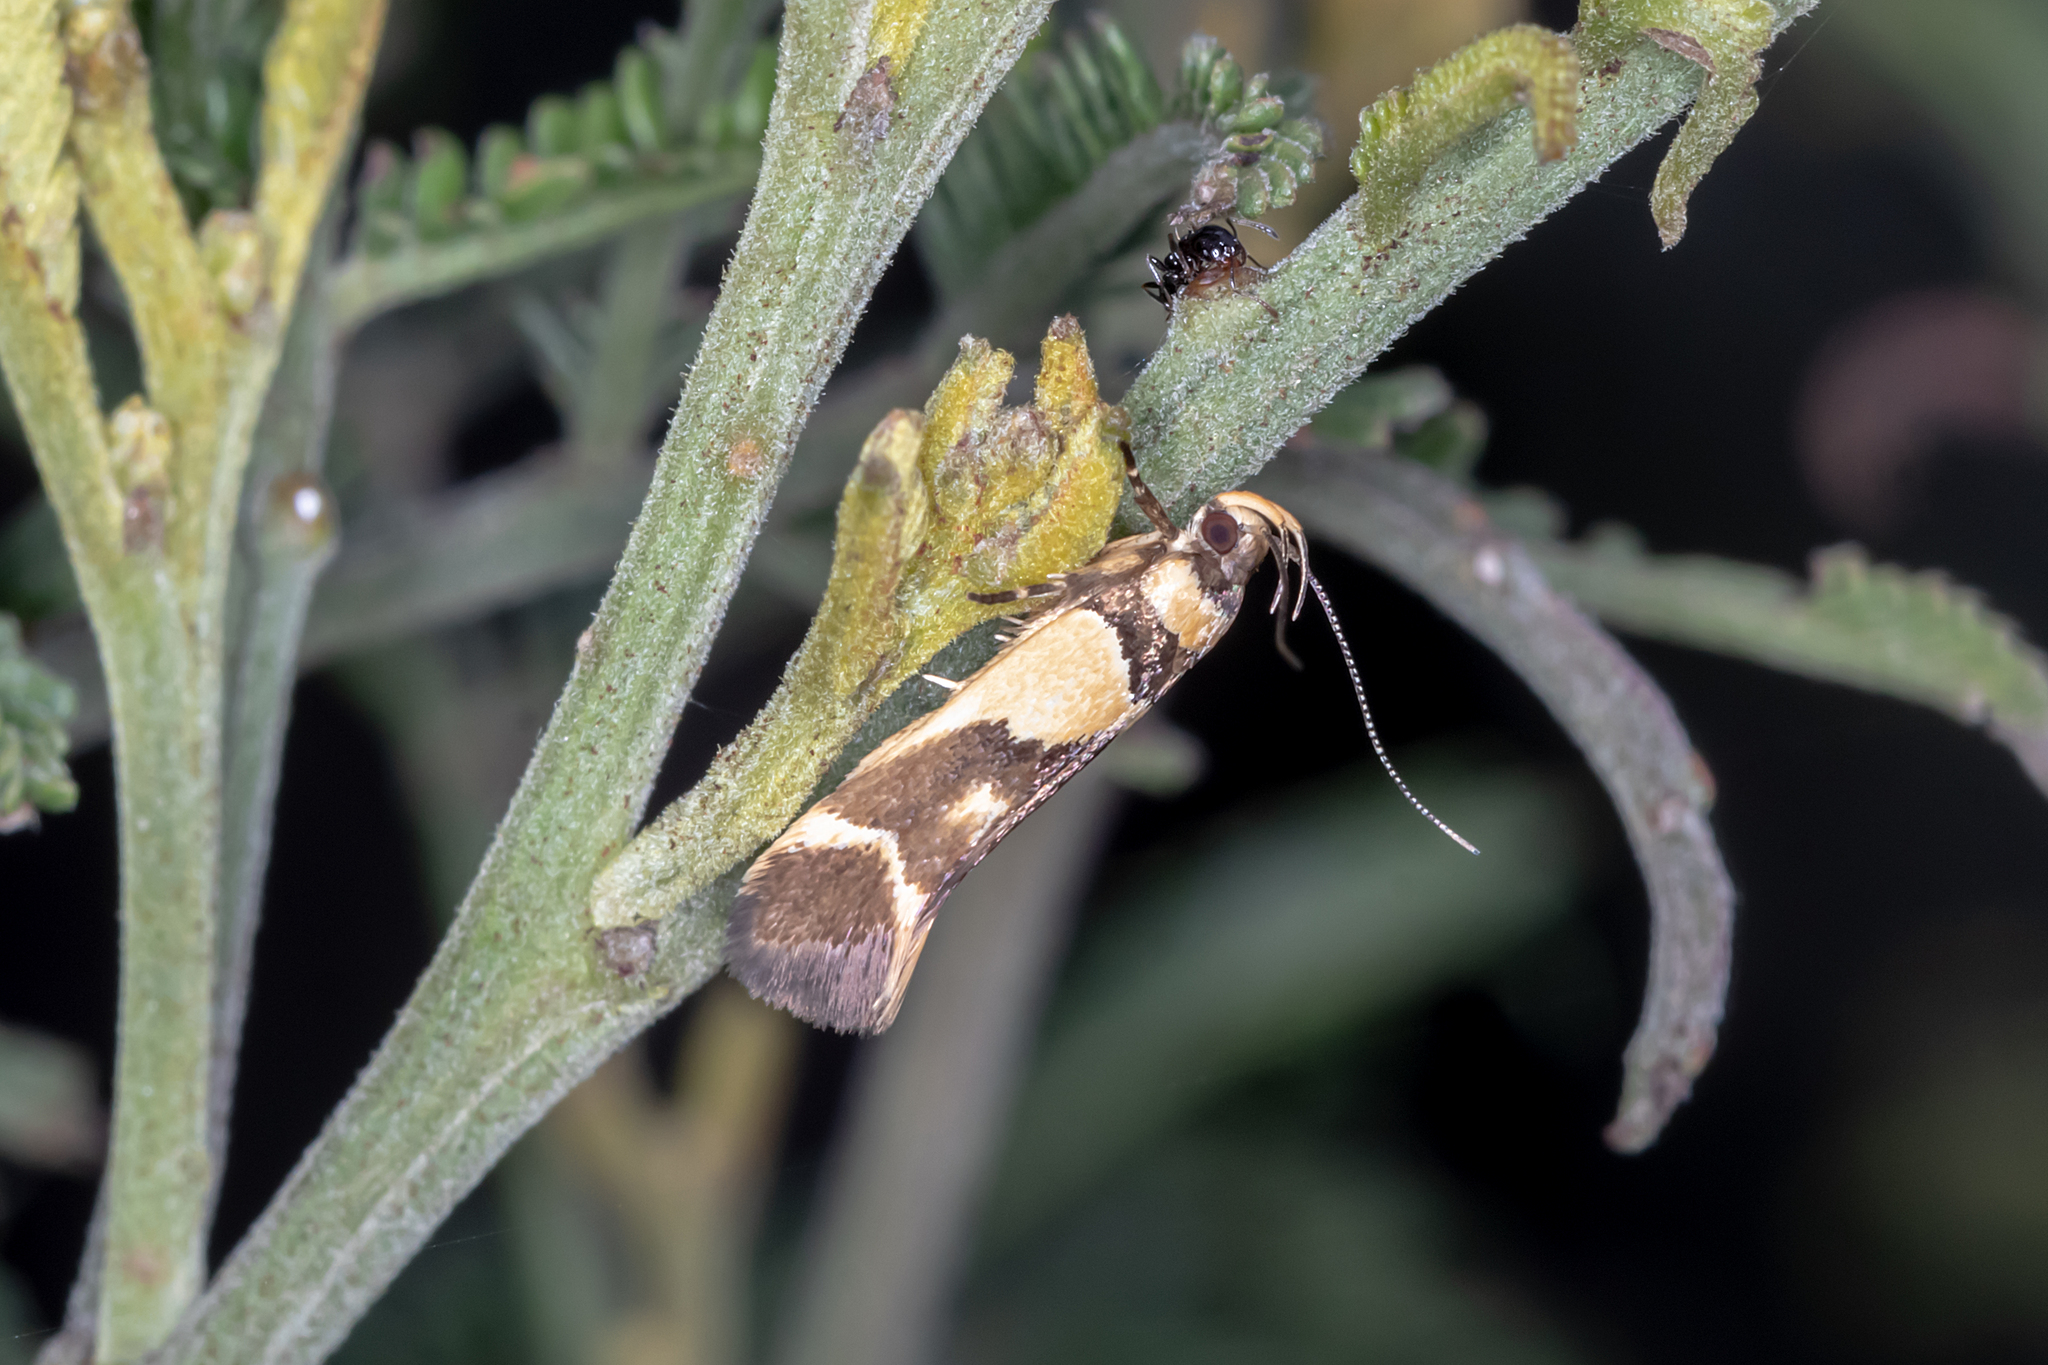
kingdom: Animalia
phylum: Arthropoda
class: Insecta
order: Lepidoptera
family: Cosmopterigidae
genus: Macrobathra
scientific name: Macrobathra chrysotoxa
